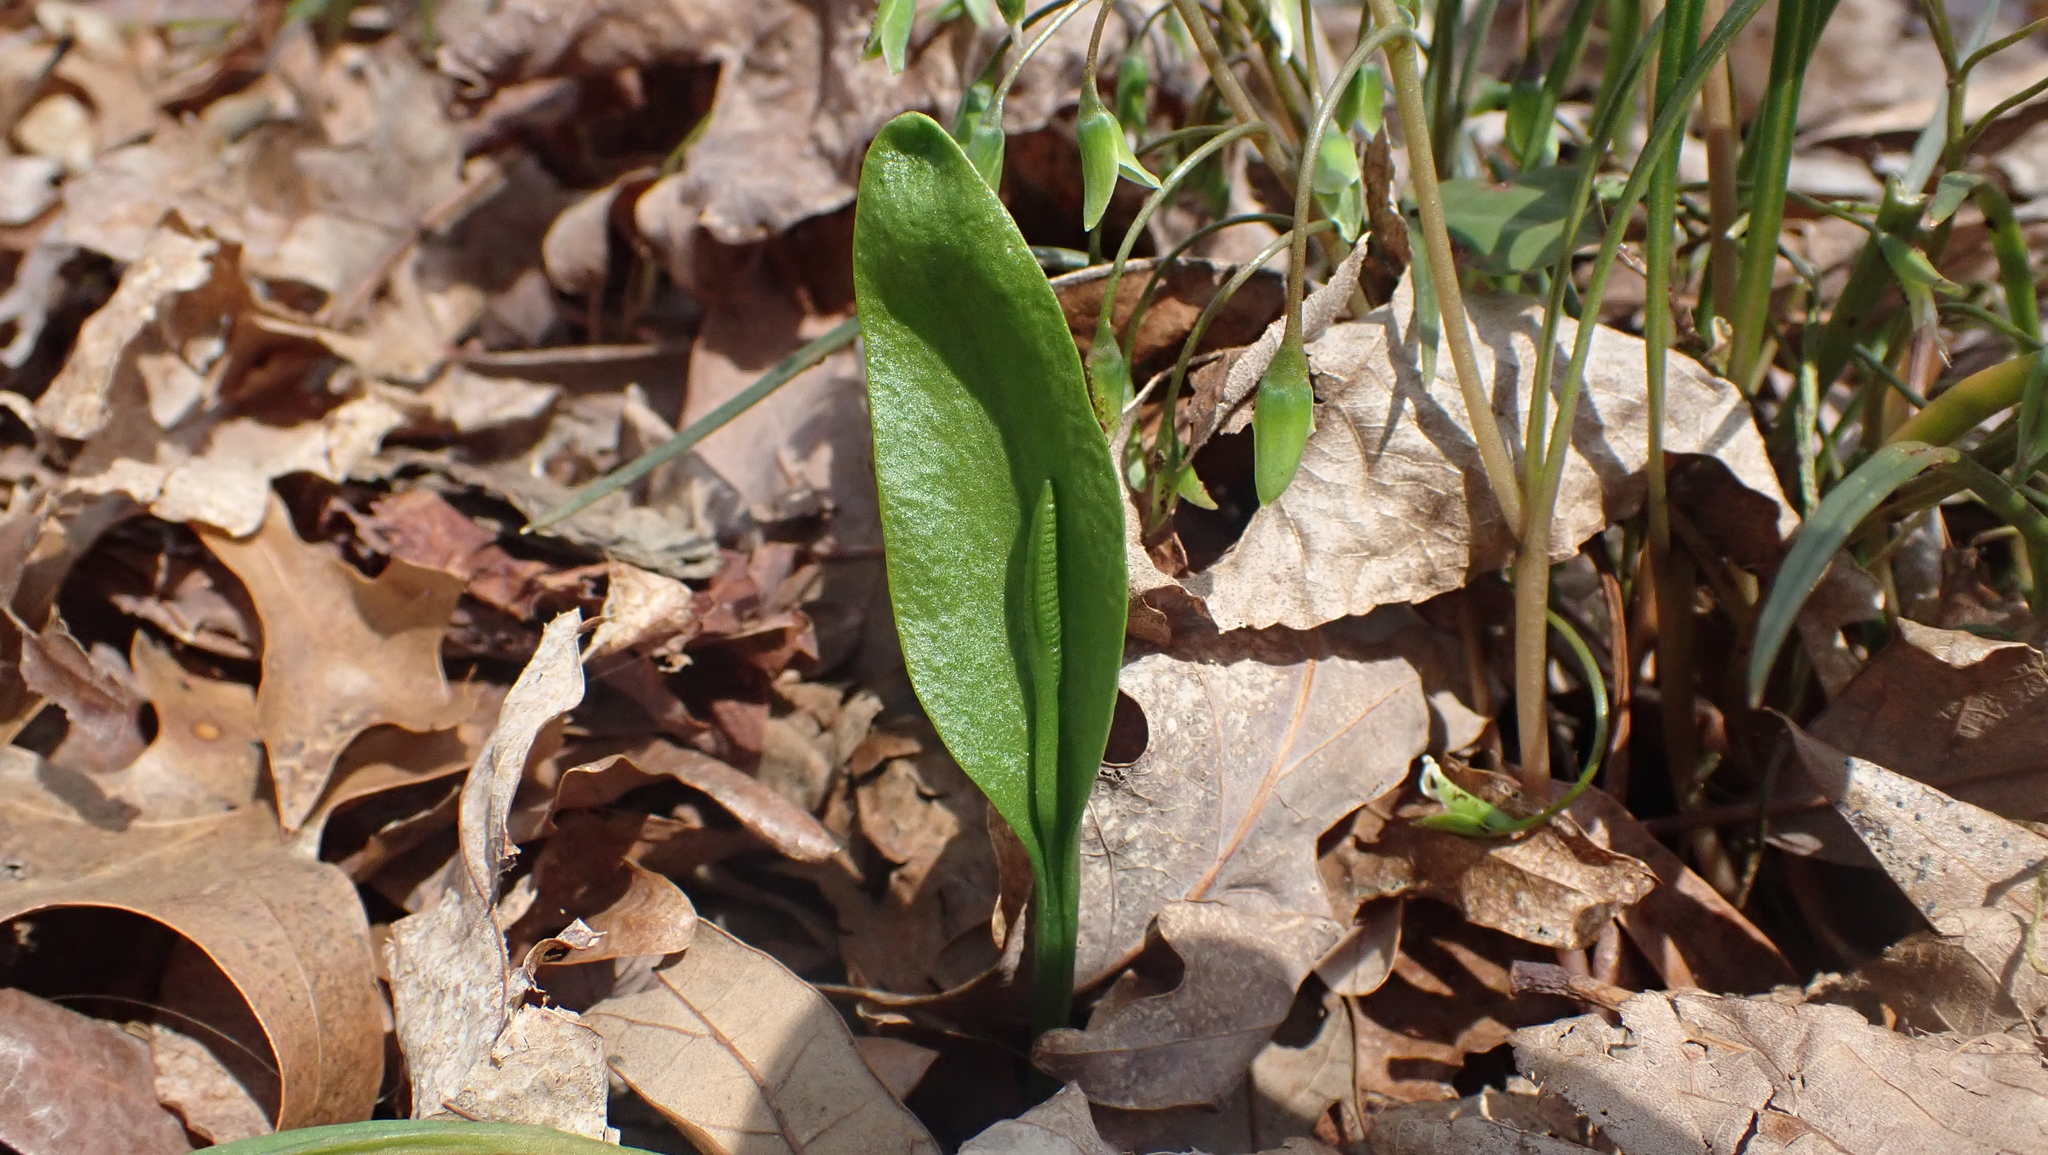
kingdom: Plantae
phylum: Tracheophyta
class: Polypodiopsida
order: Ophioglossales
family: Ophioglossaceae
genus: Ophioglossum
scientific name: Ophioglossum vulgatum
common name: Adder's-tongue
